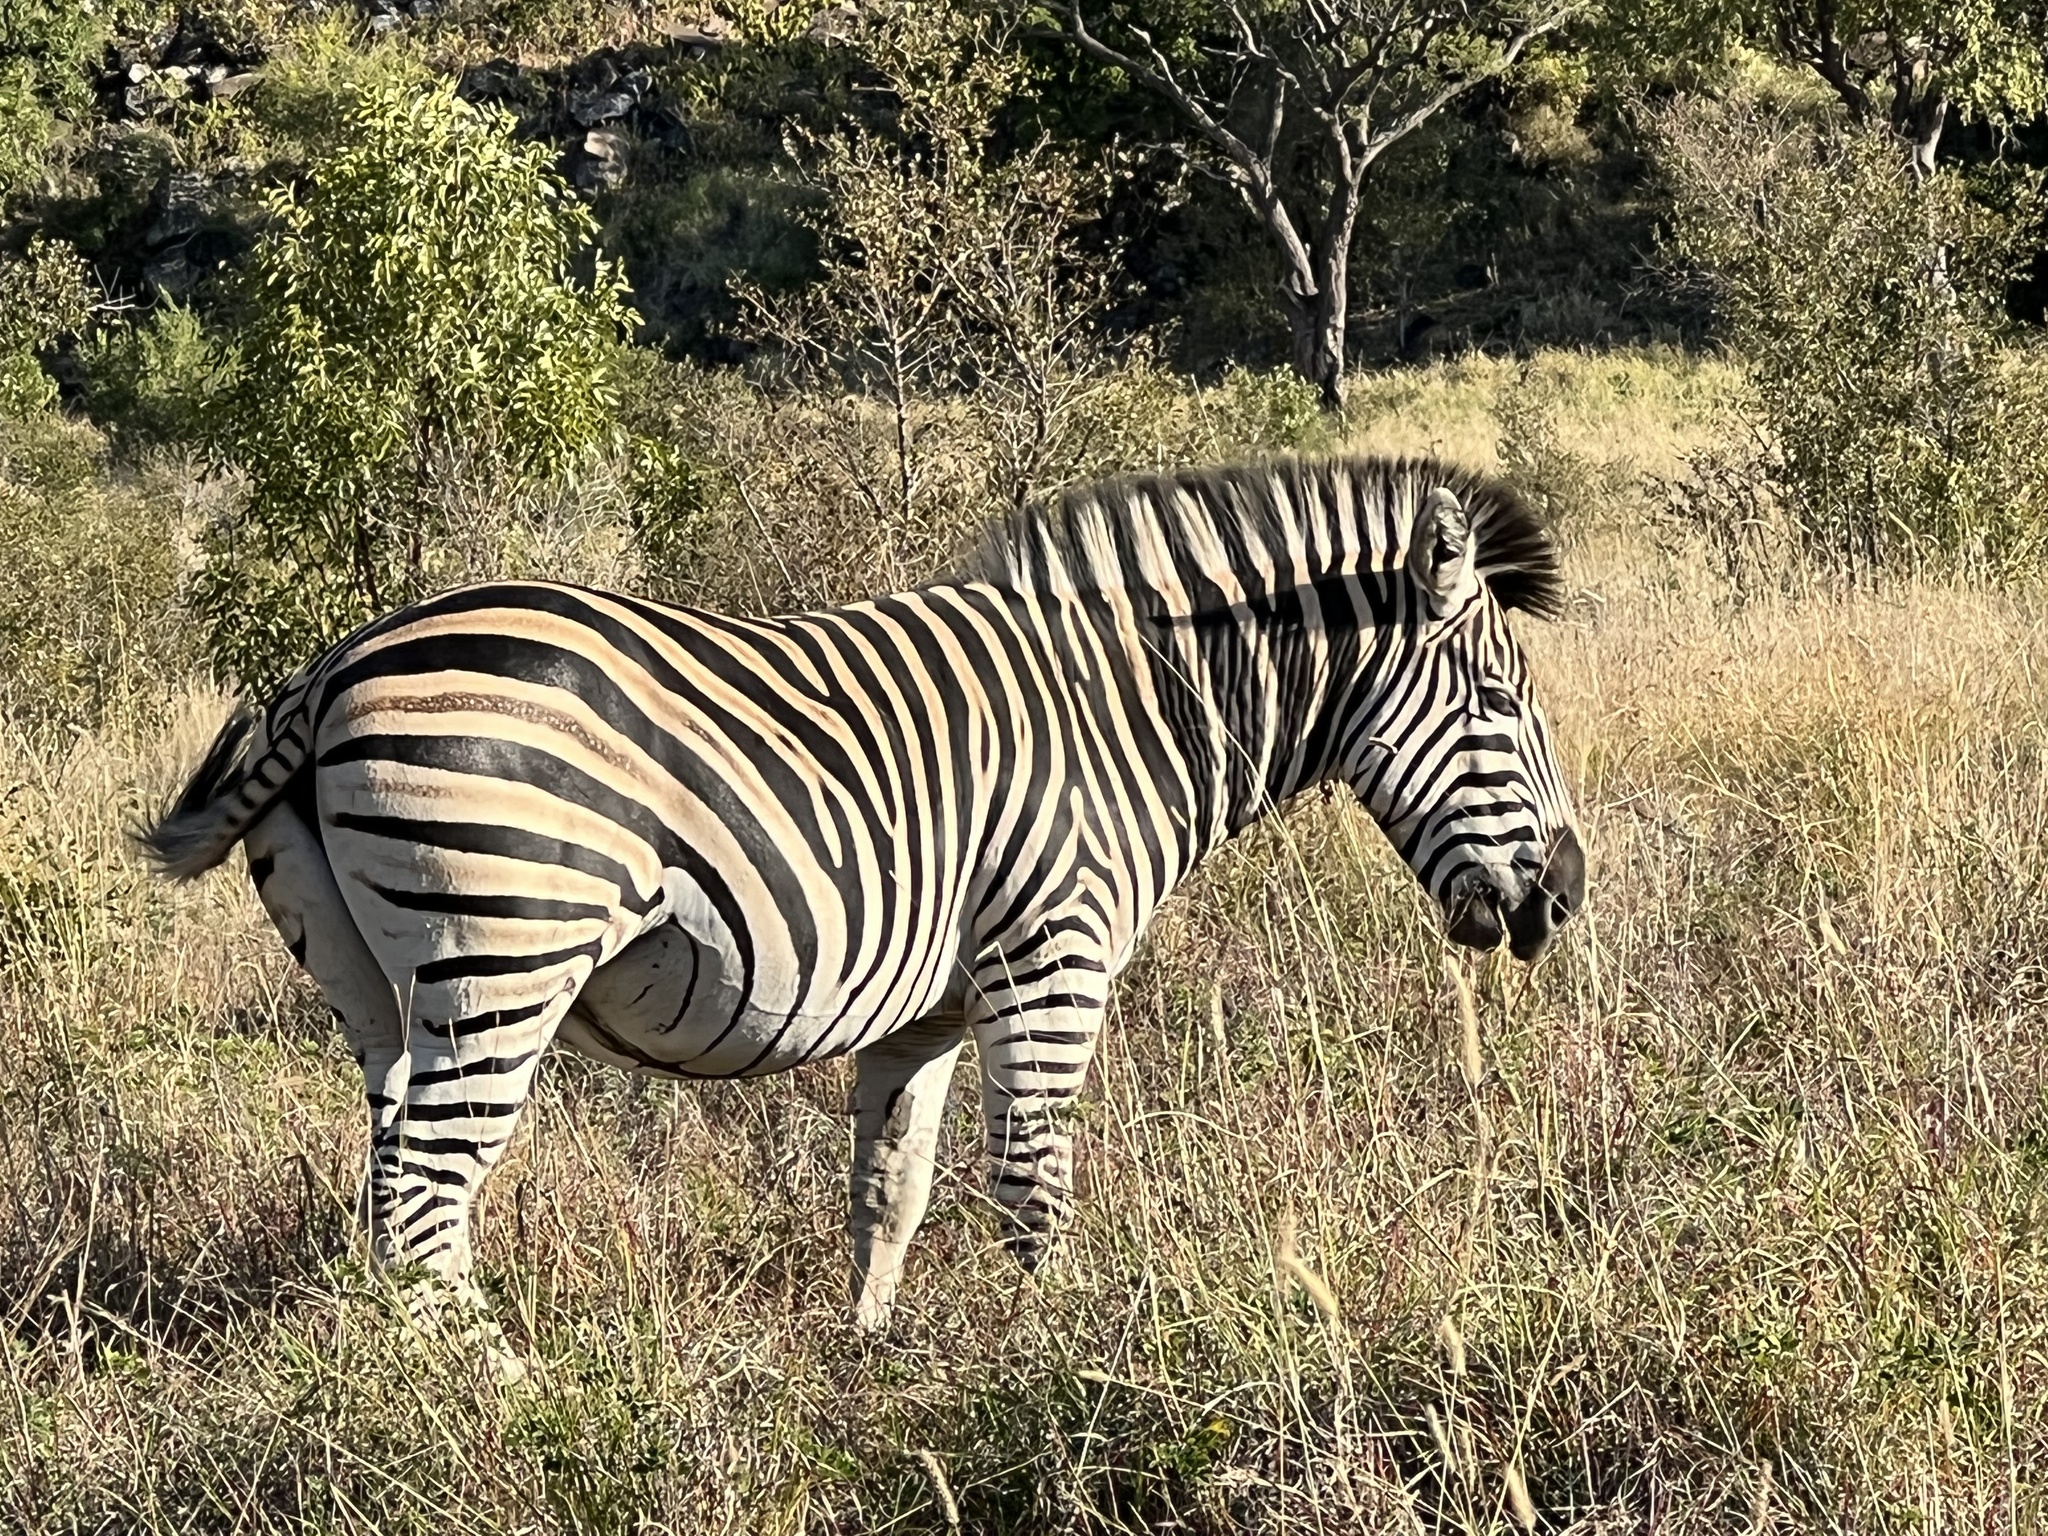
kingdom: Animalia
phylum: Chordata
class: Mammalia
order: Perissodactyla
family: Equidae
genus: Equus
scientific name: Equus quagga
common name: Plains zebra
